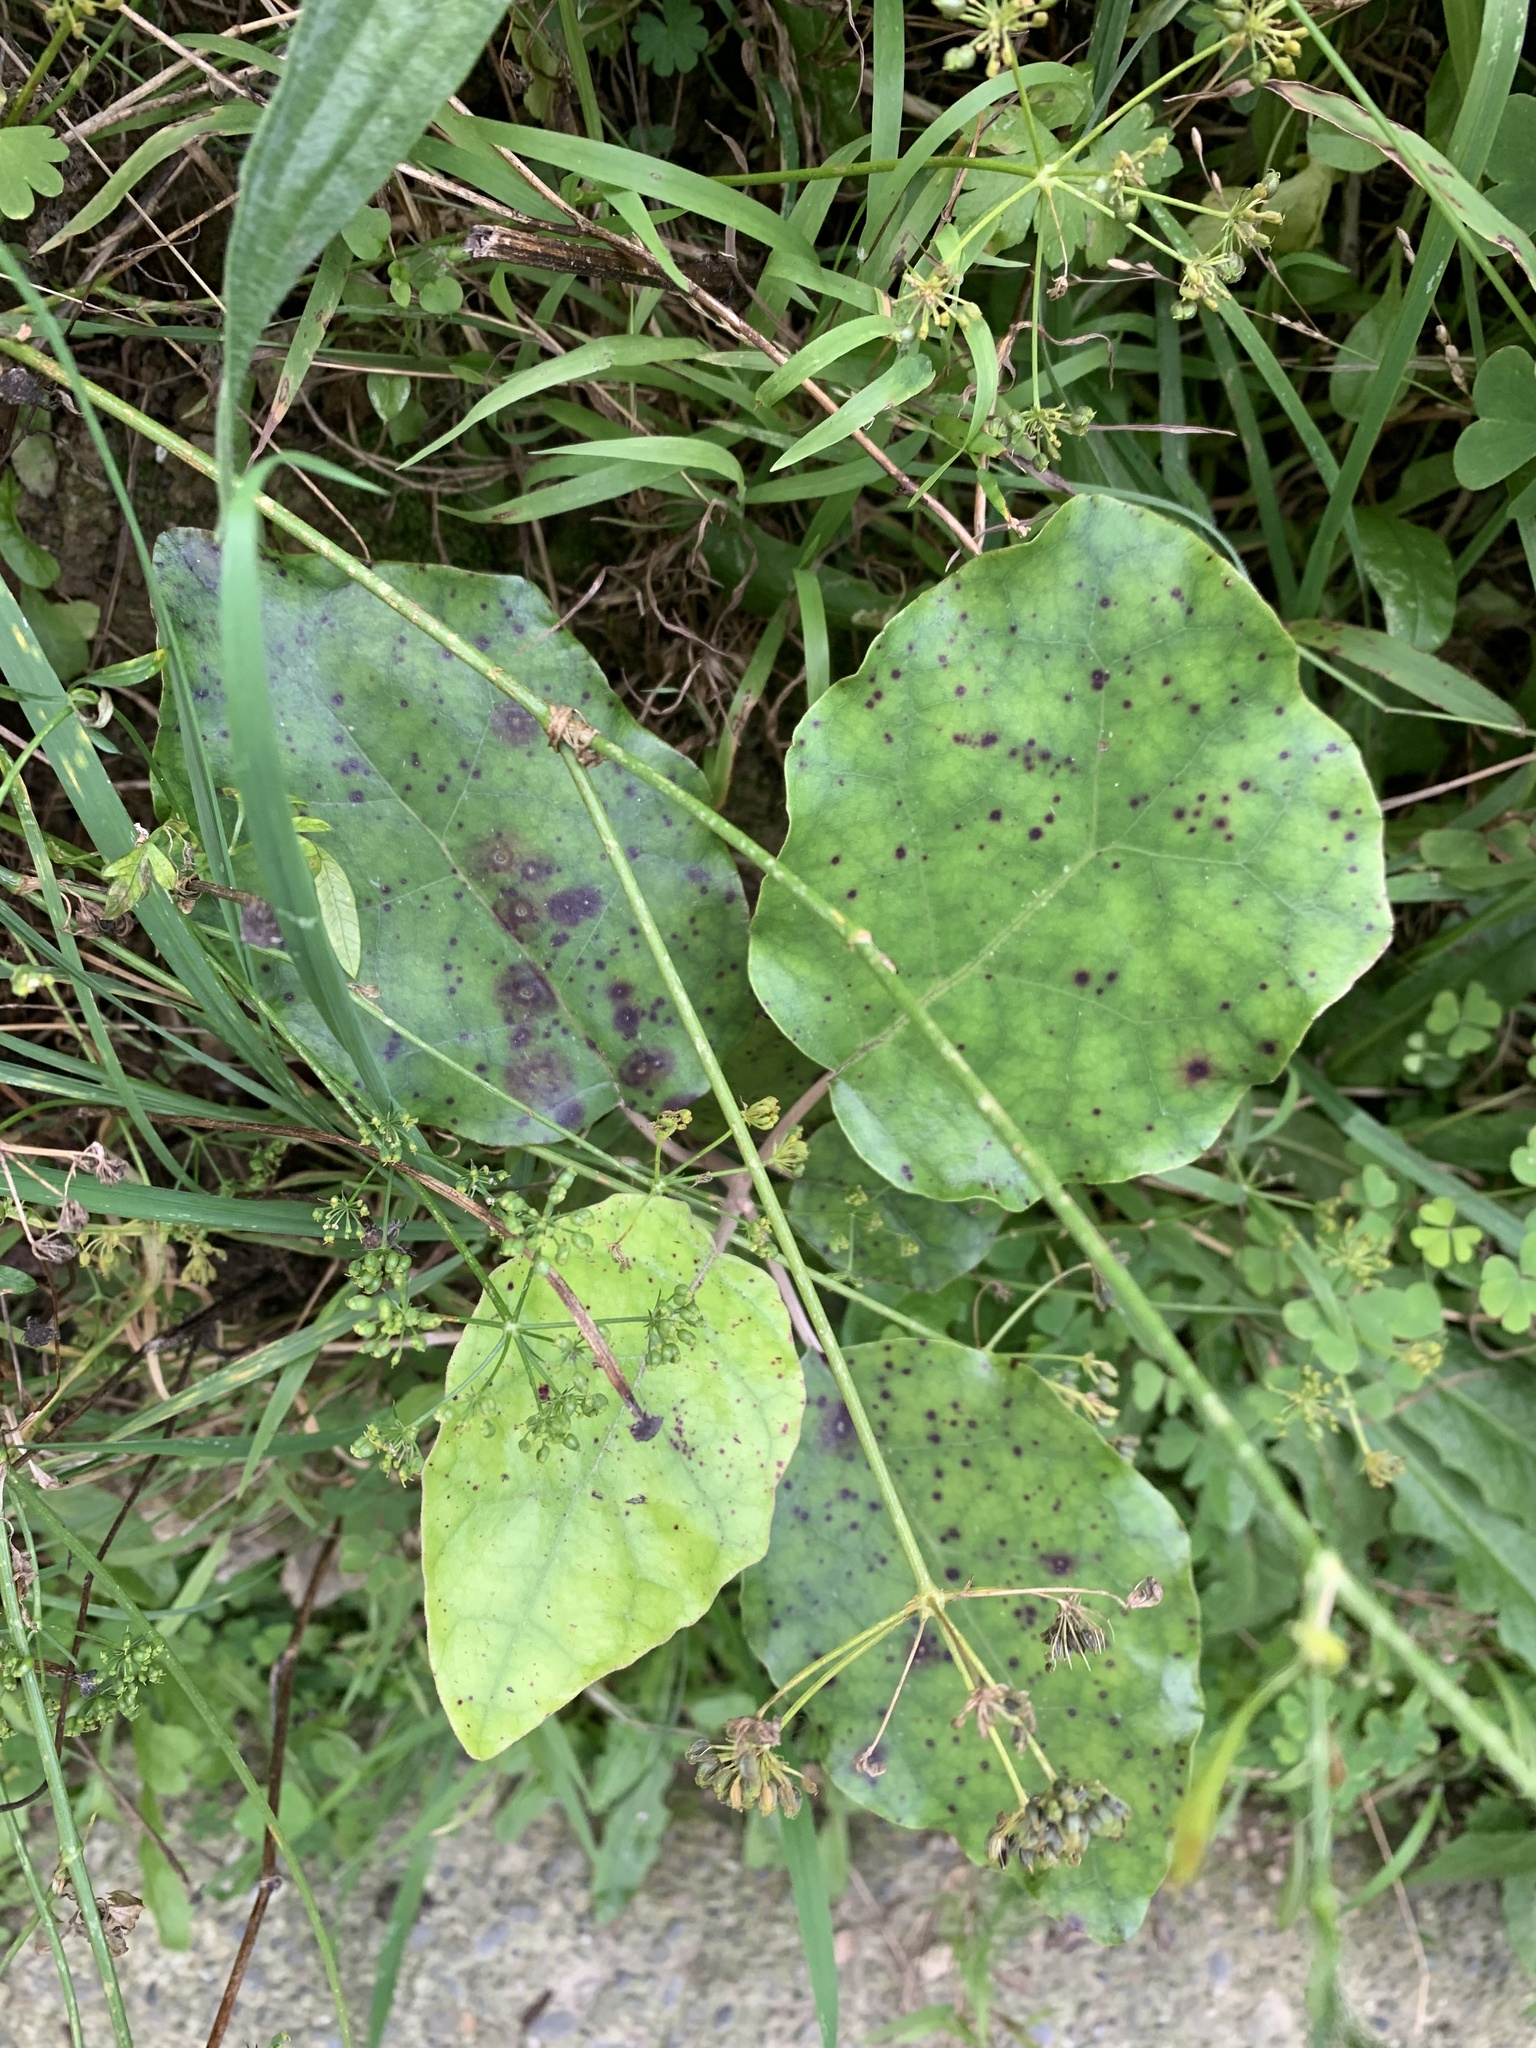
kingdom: Plantae
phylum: Tracheophyta
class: Magnoliopsida
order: Asterales
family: Asteraceae
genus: Brachyglottis
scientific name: Brachyglottis repanda
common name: Hedge ragwort
